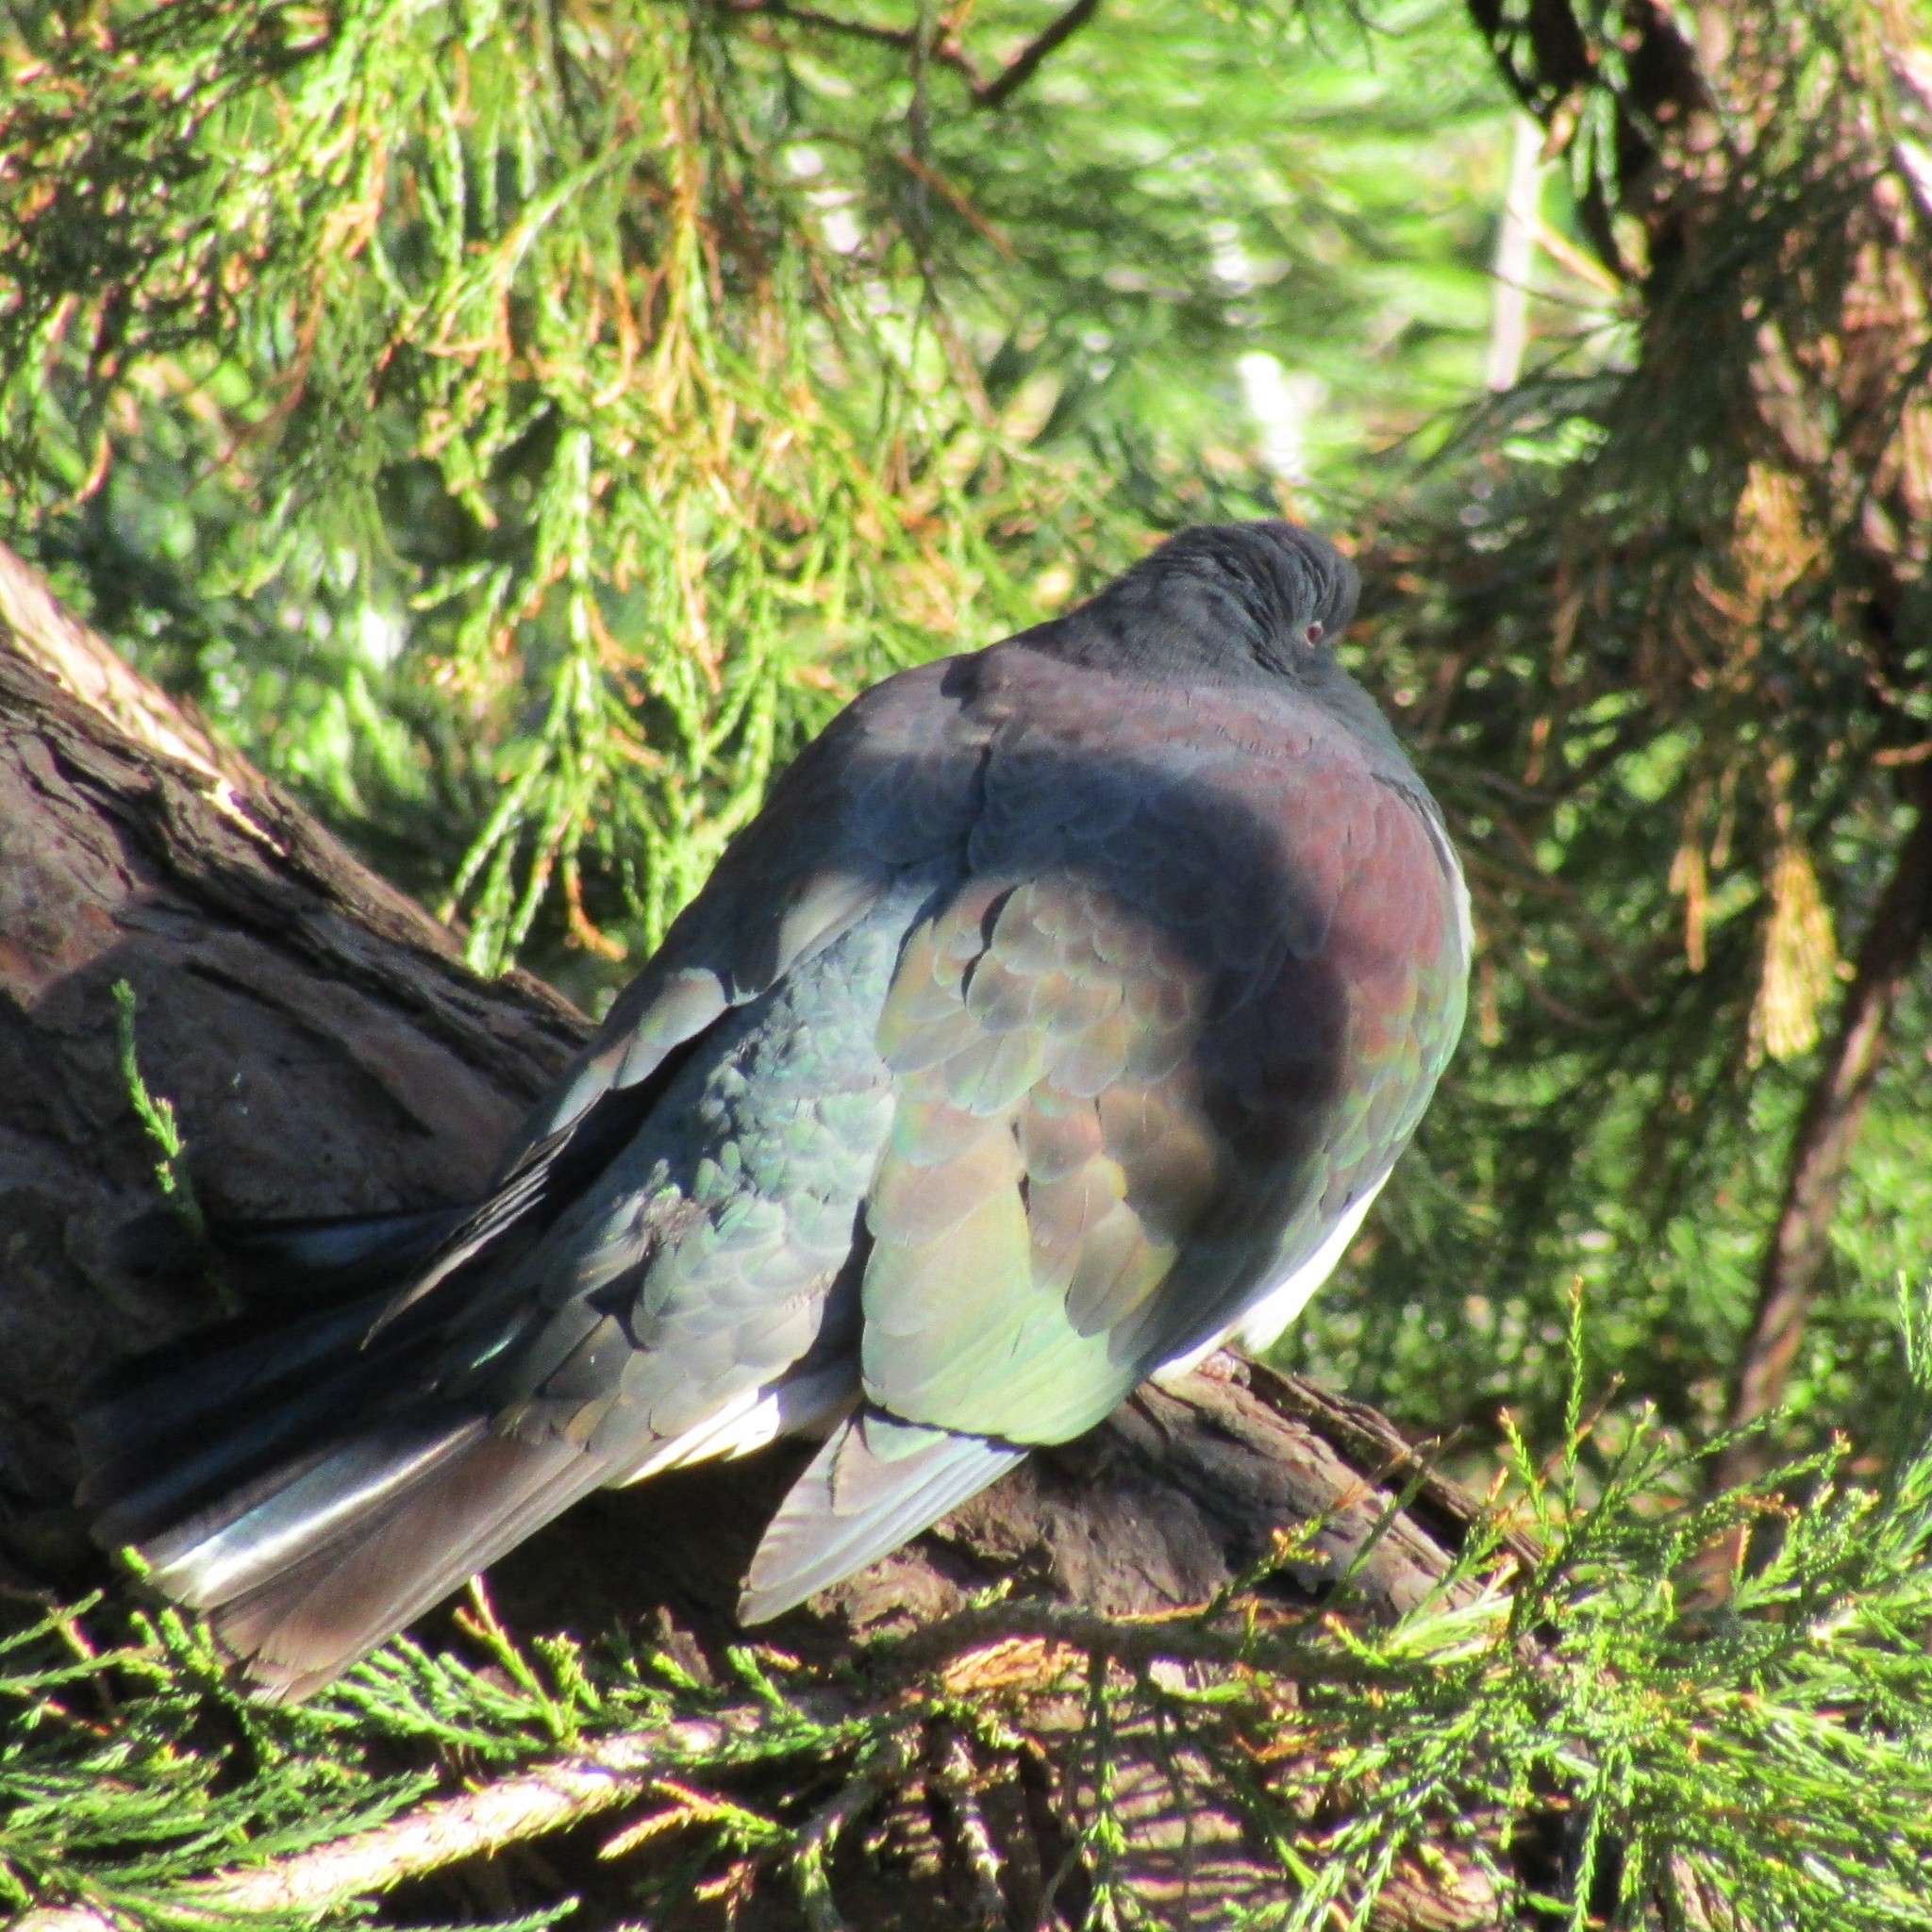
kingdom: Animalia
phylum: Chordata
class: Aves
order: Columbiformes
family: Columbidae
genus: Hemiphaga
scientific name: Hemiphaga novaeseelandiae
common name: New zealand pigeon
